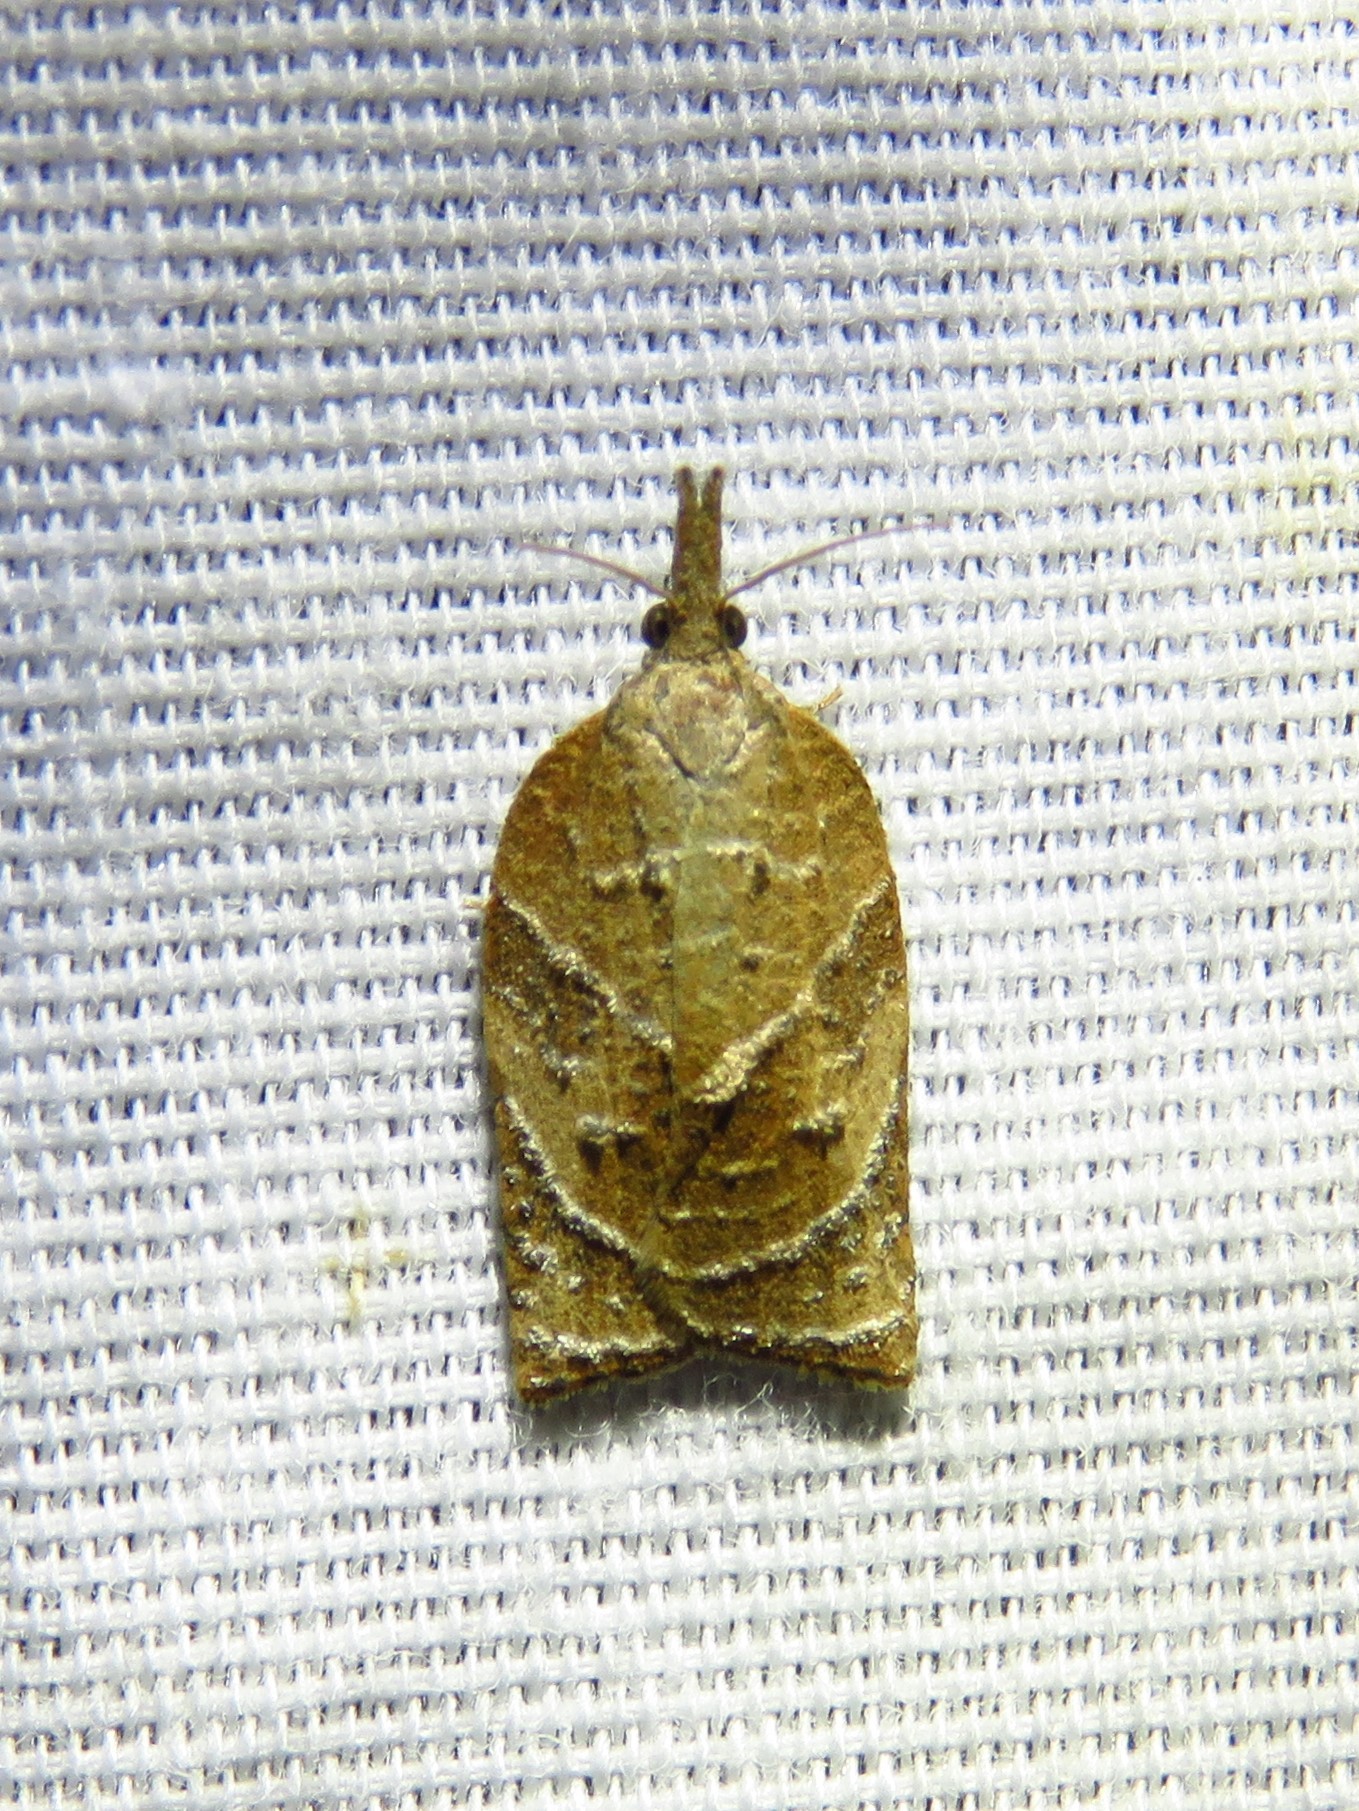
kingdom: Animalia
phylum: Arthropoda
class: Insecta
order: Lepidoptera
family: Tortricidae
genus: Platynota
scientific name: Platynota rostrana
